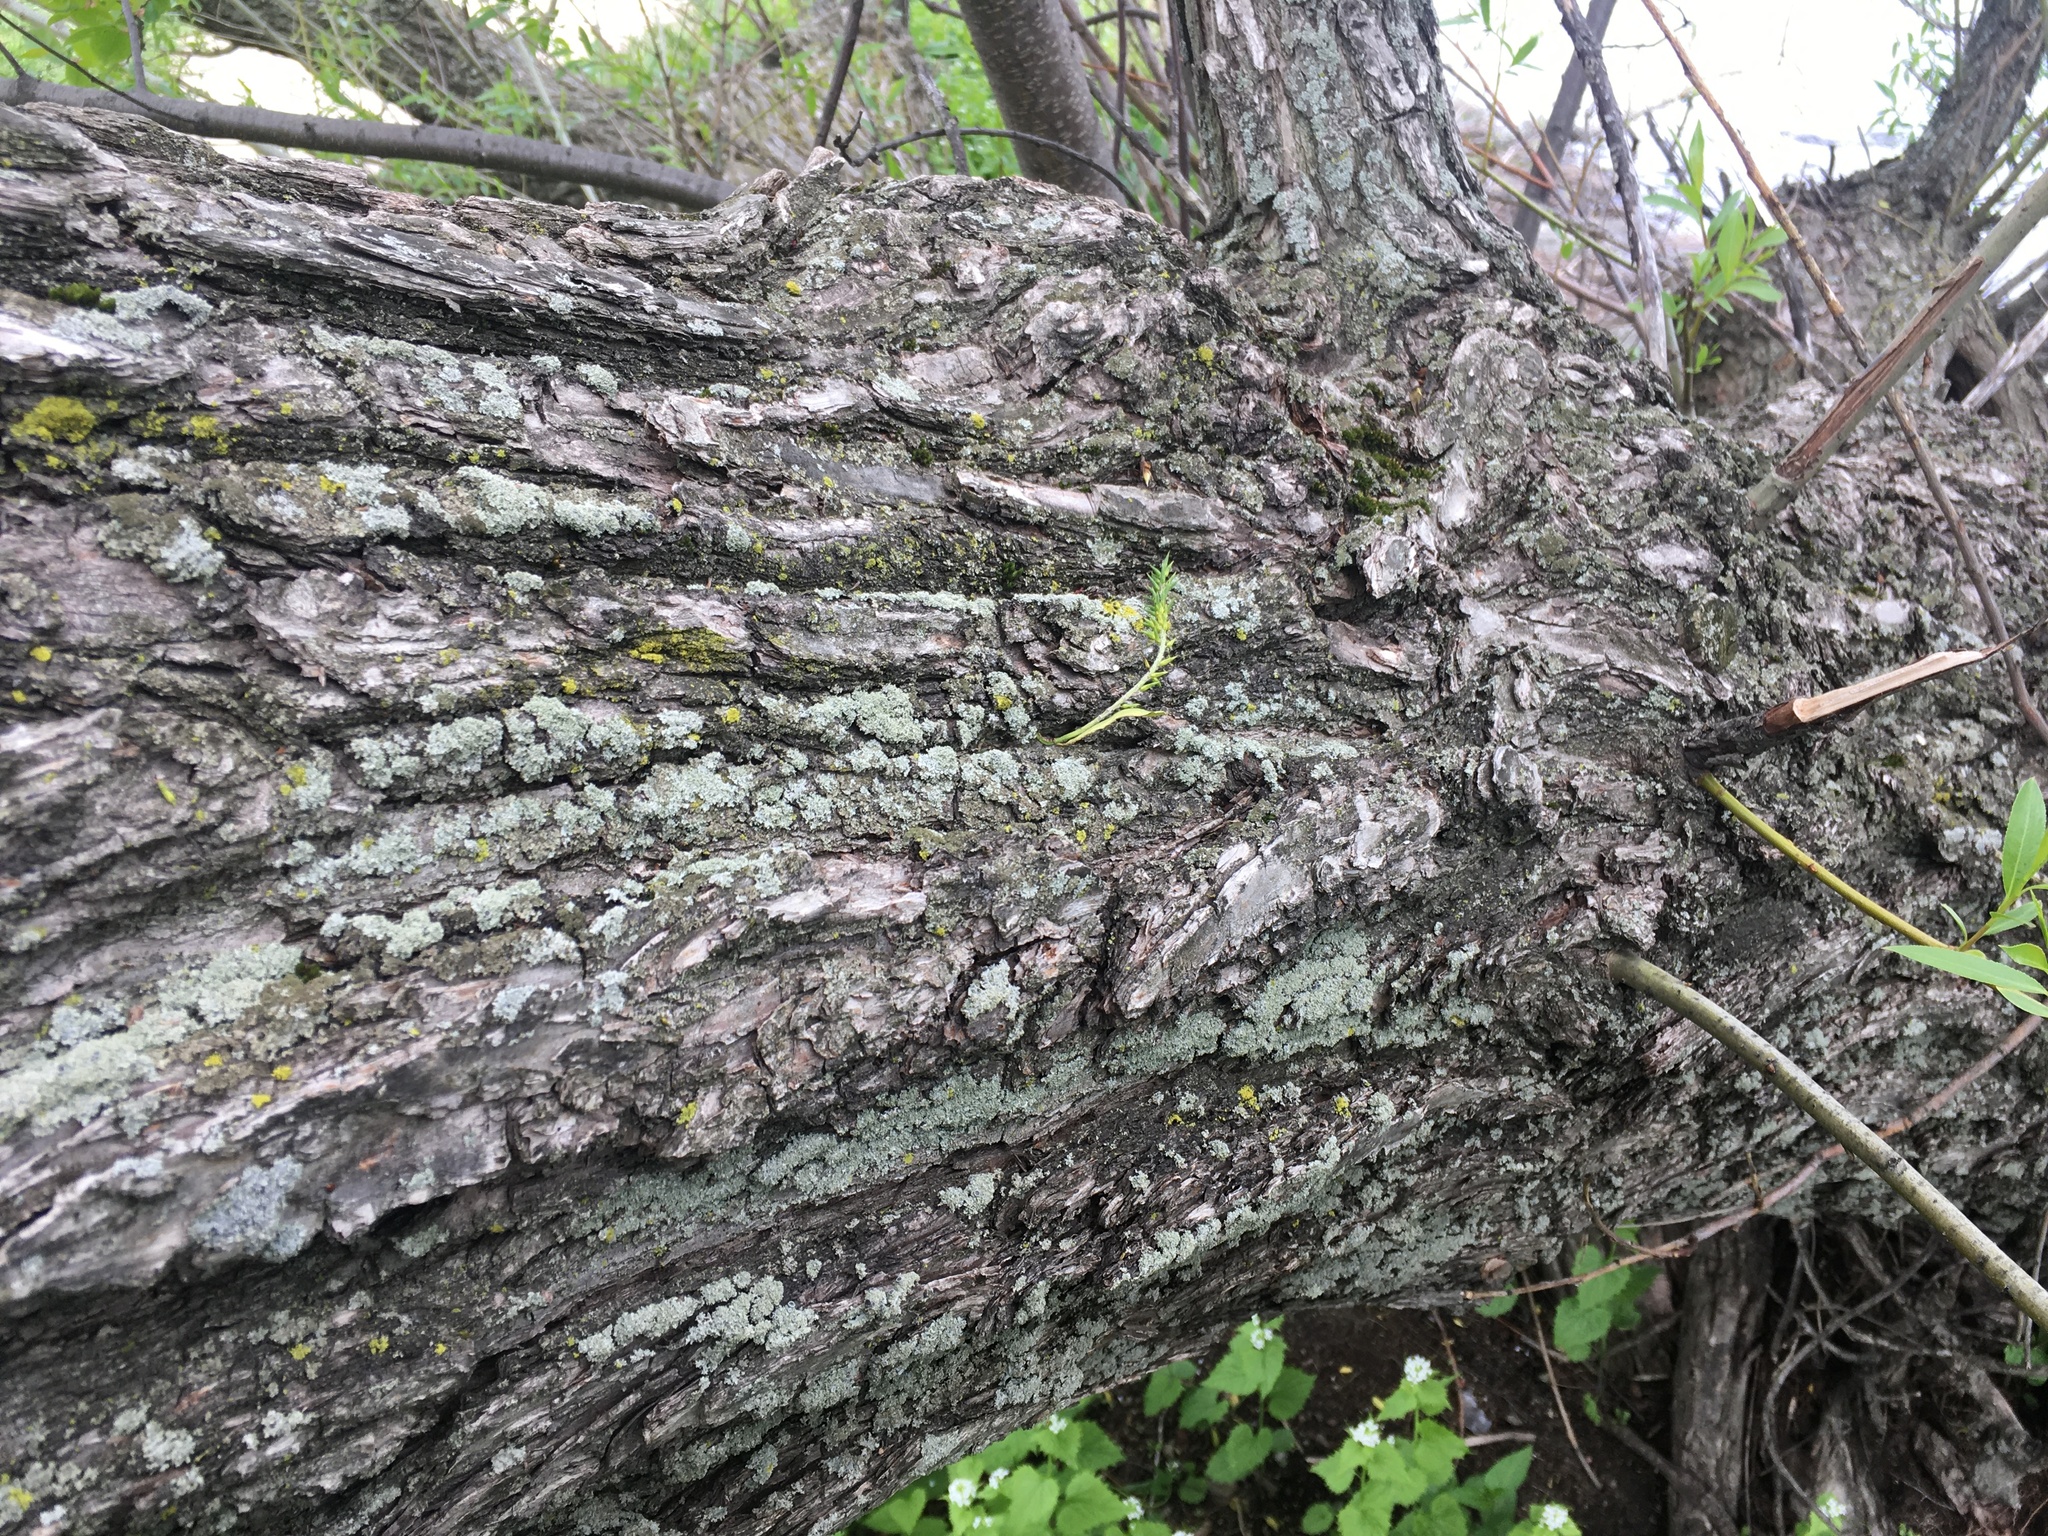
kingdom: Plantae
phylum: Tracheophyta
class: Magnoliopsida
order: Malpighiales
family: Salicaceae
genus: Salix
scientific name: Salix alba
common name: White willow
